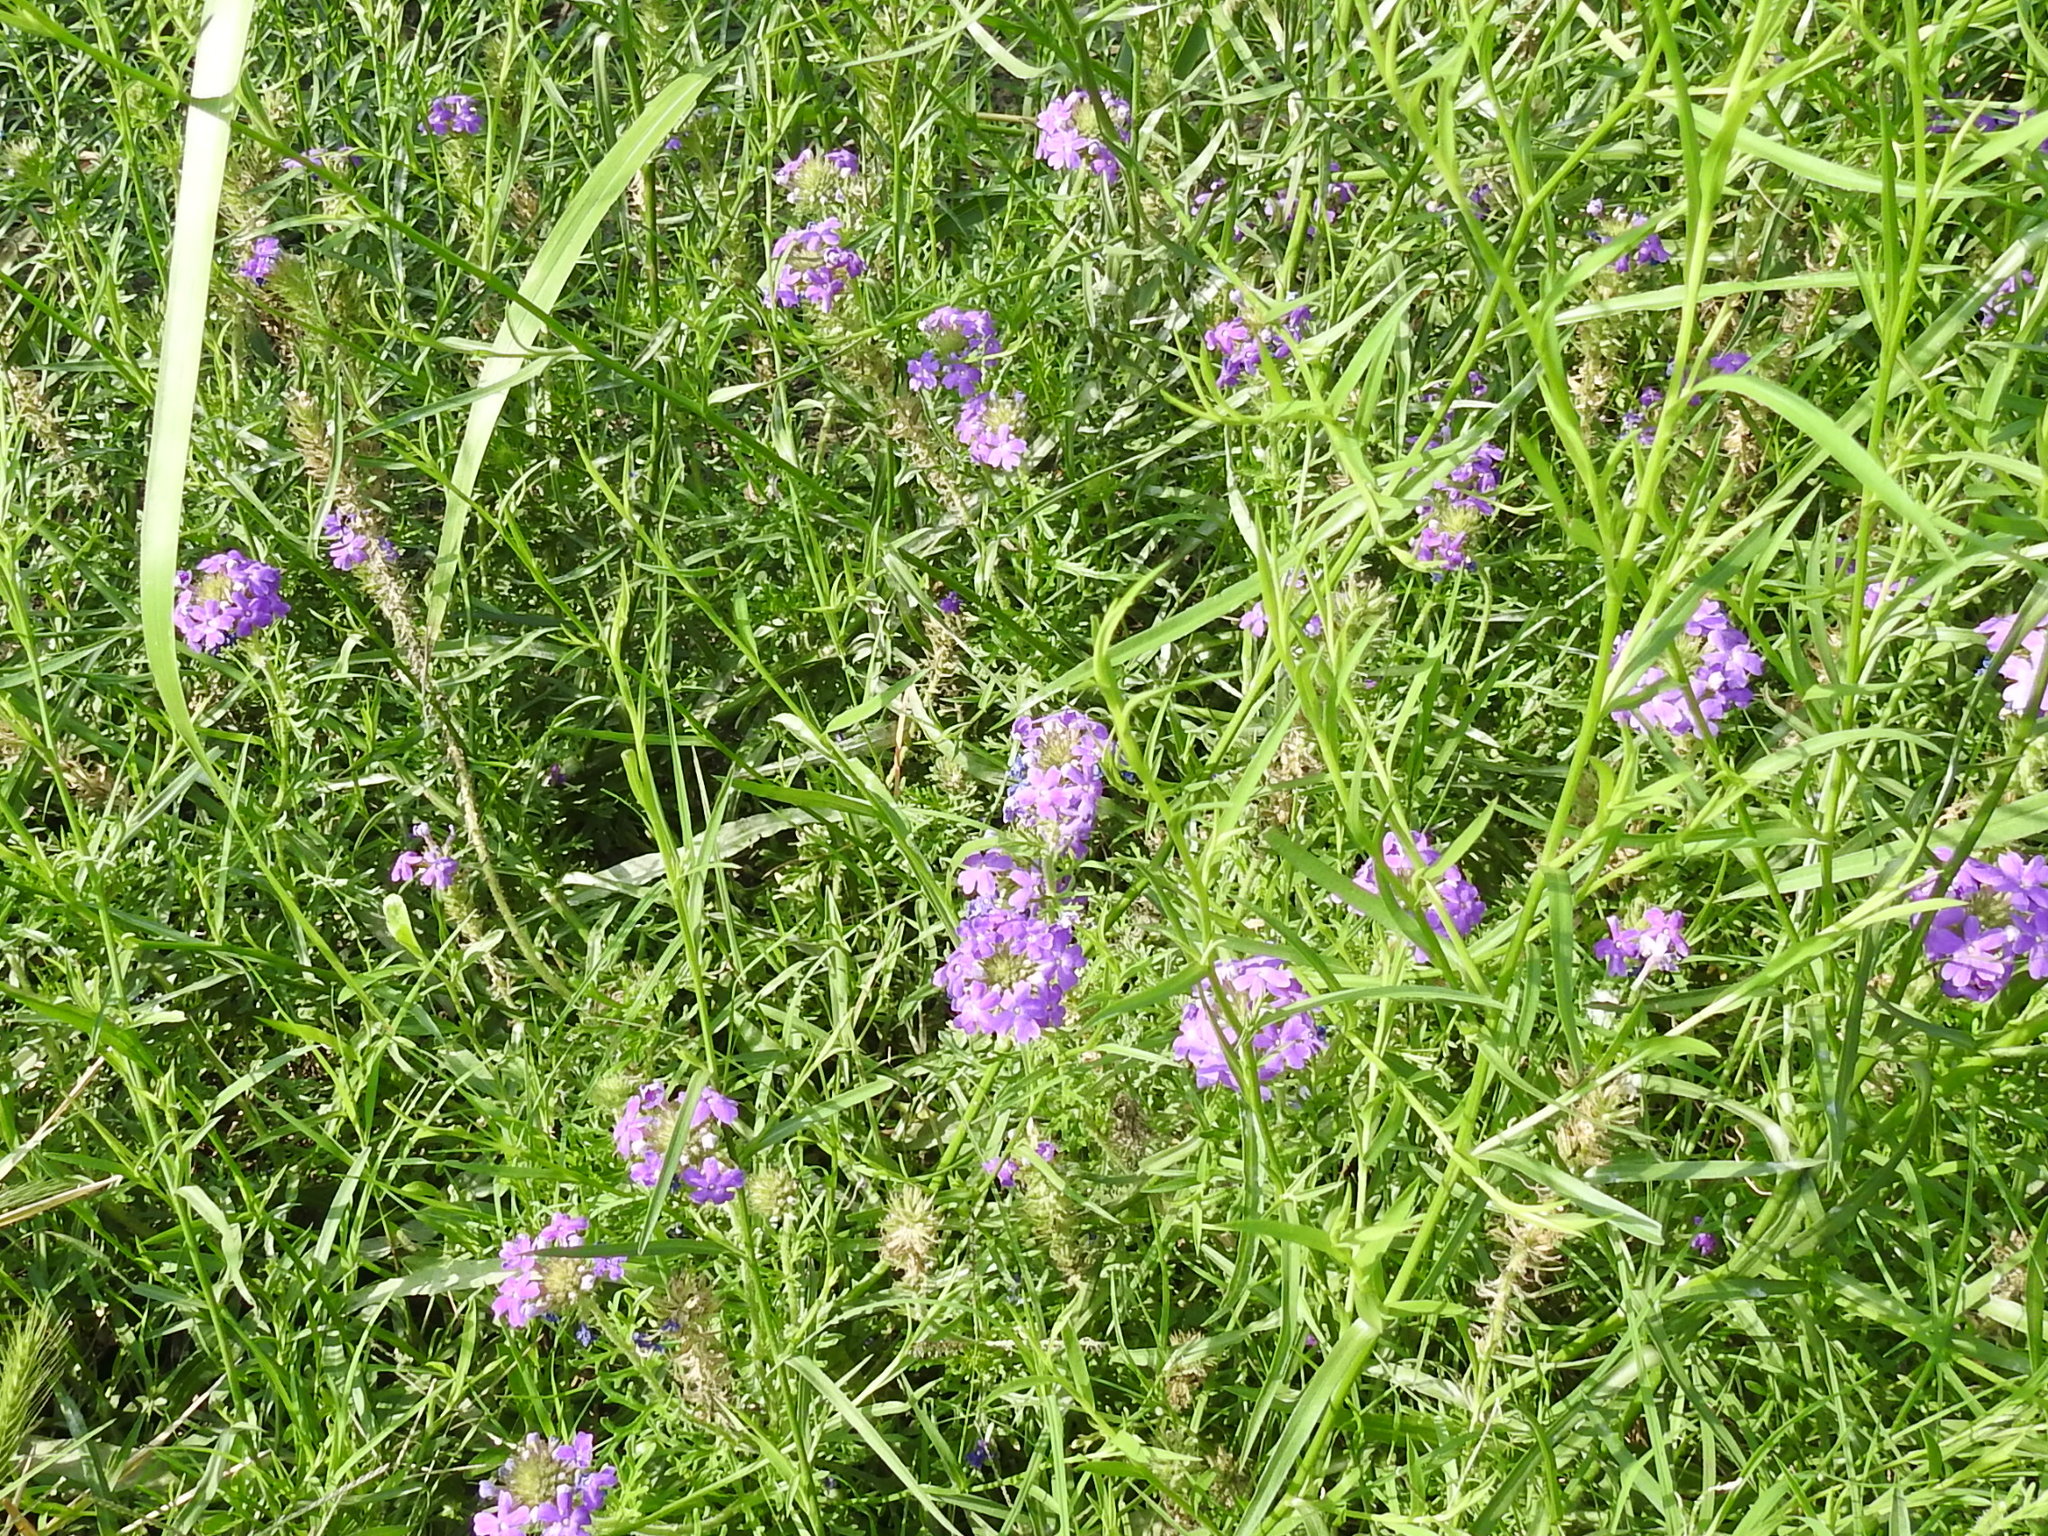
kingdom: Plantae
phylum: Tracheophyta
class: Magnoliopsida
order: Lamiales
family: Verbenaceae
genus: Verbena
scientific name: Verbena bipinnatifida
